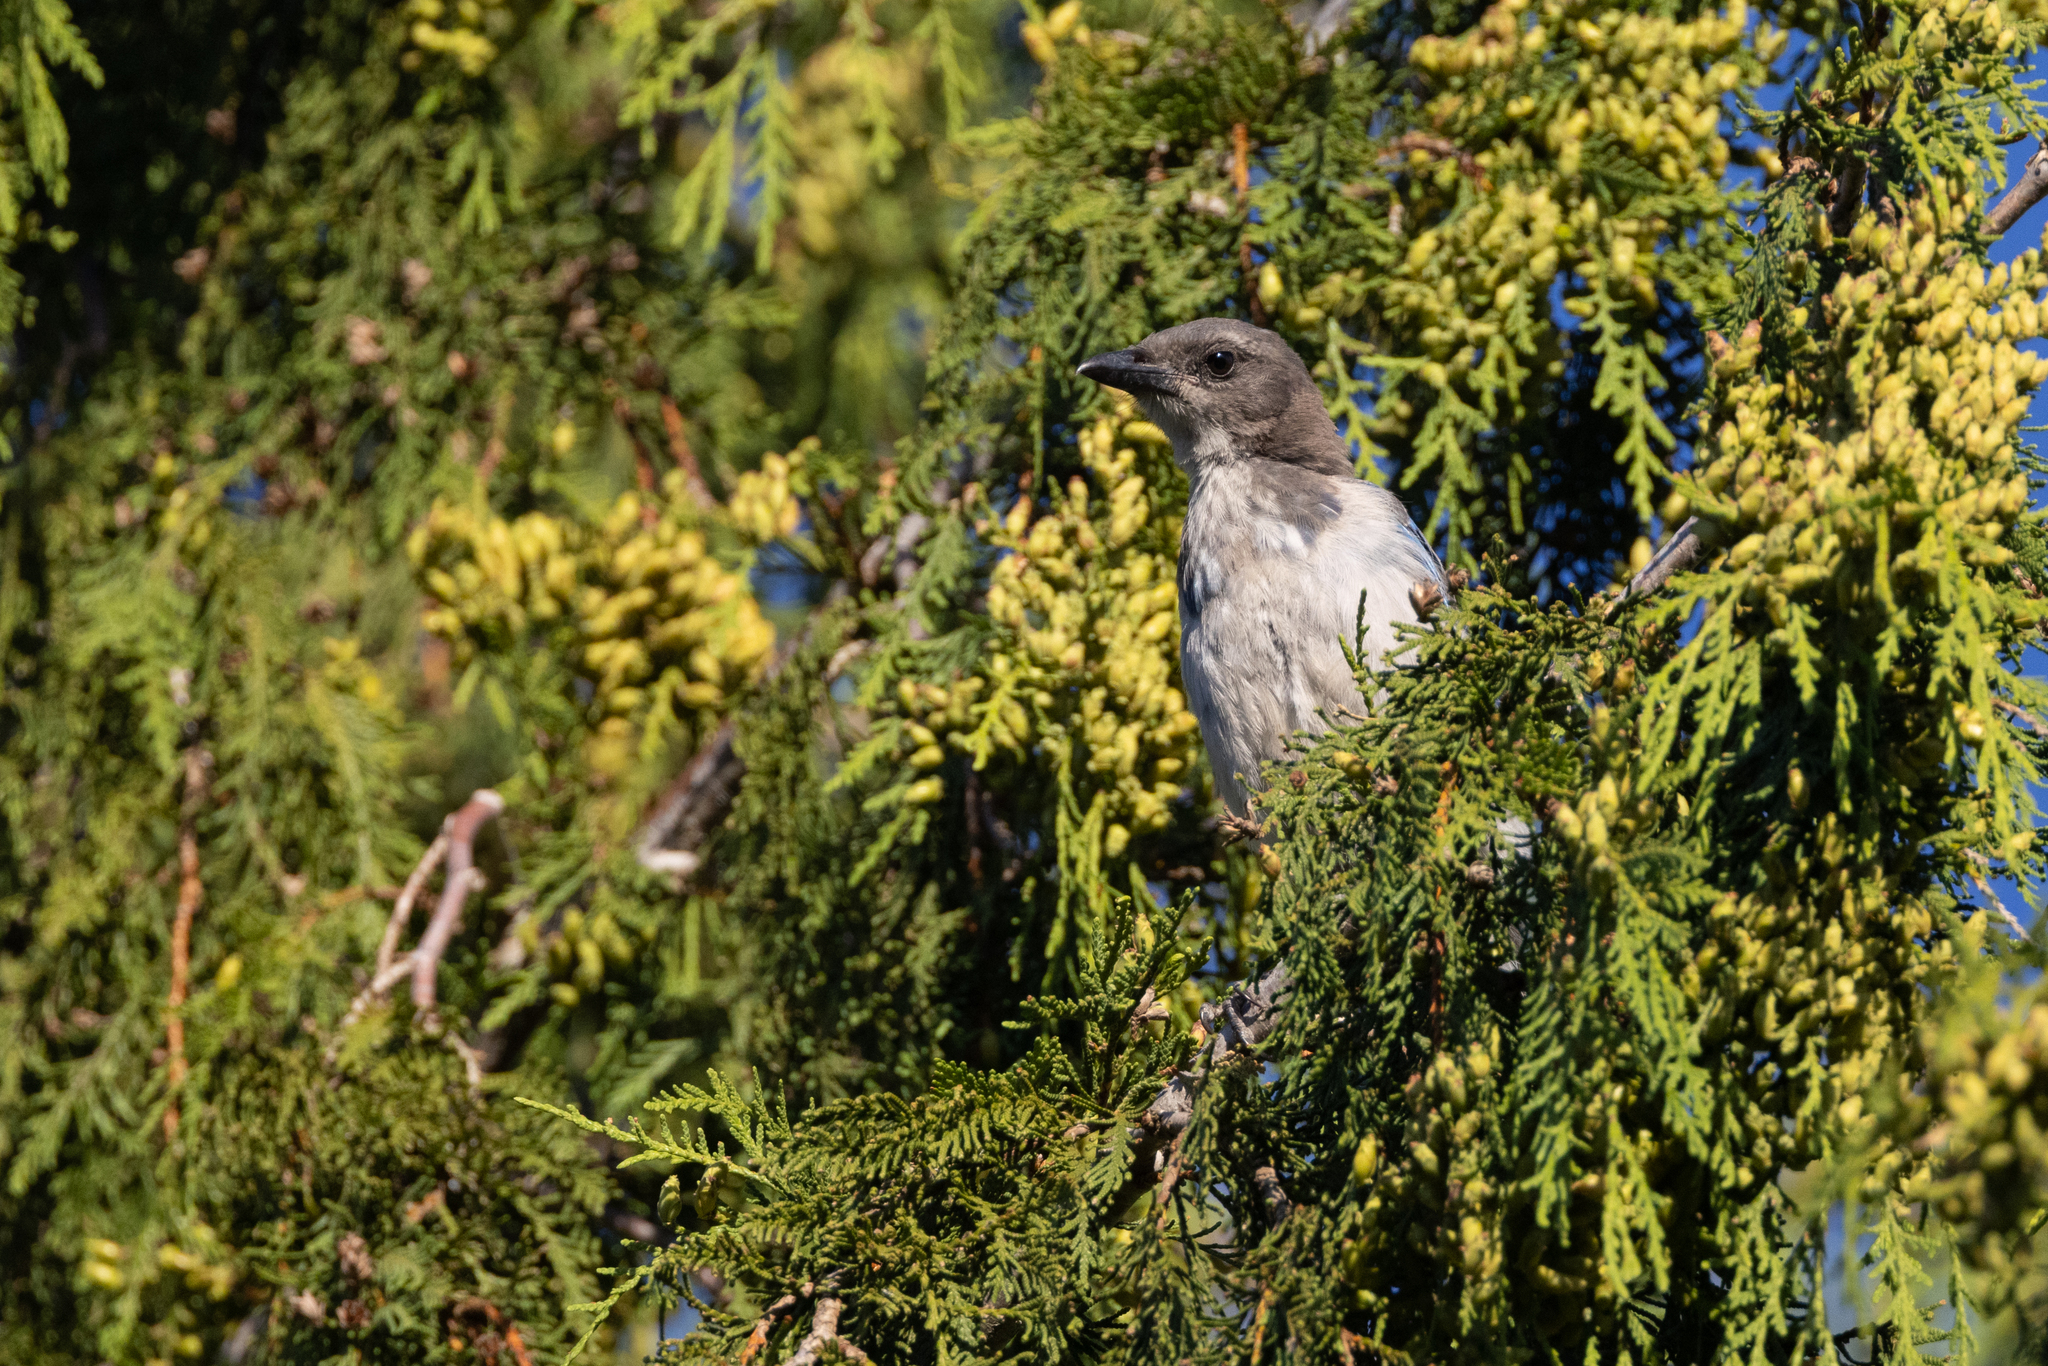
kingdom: Animalia
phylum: Chordata
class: Aves
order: Passeriformes
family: Corvidae
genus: Aphelocoma
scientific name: Aphelocoma californica
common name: California scrub-jay
